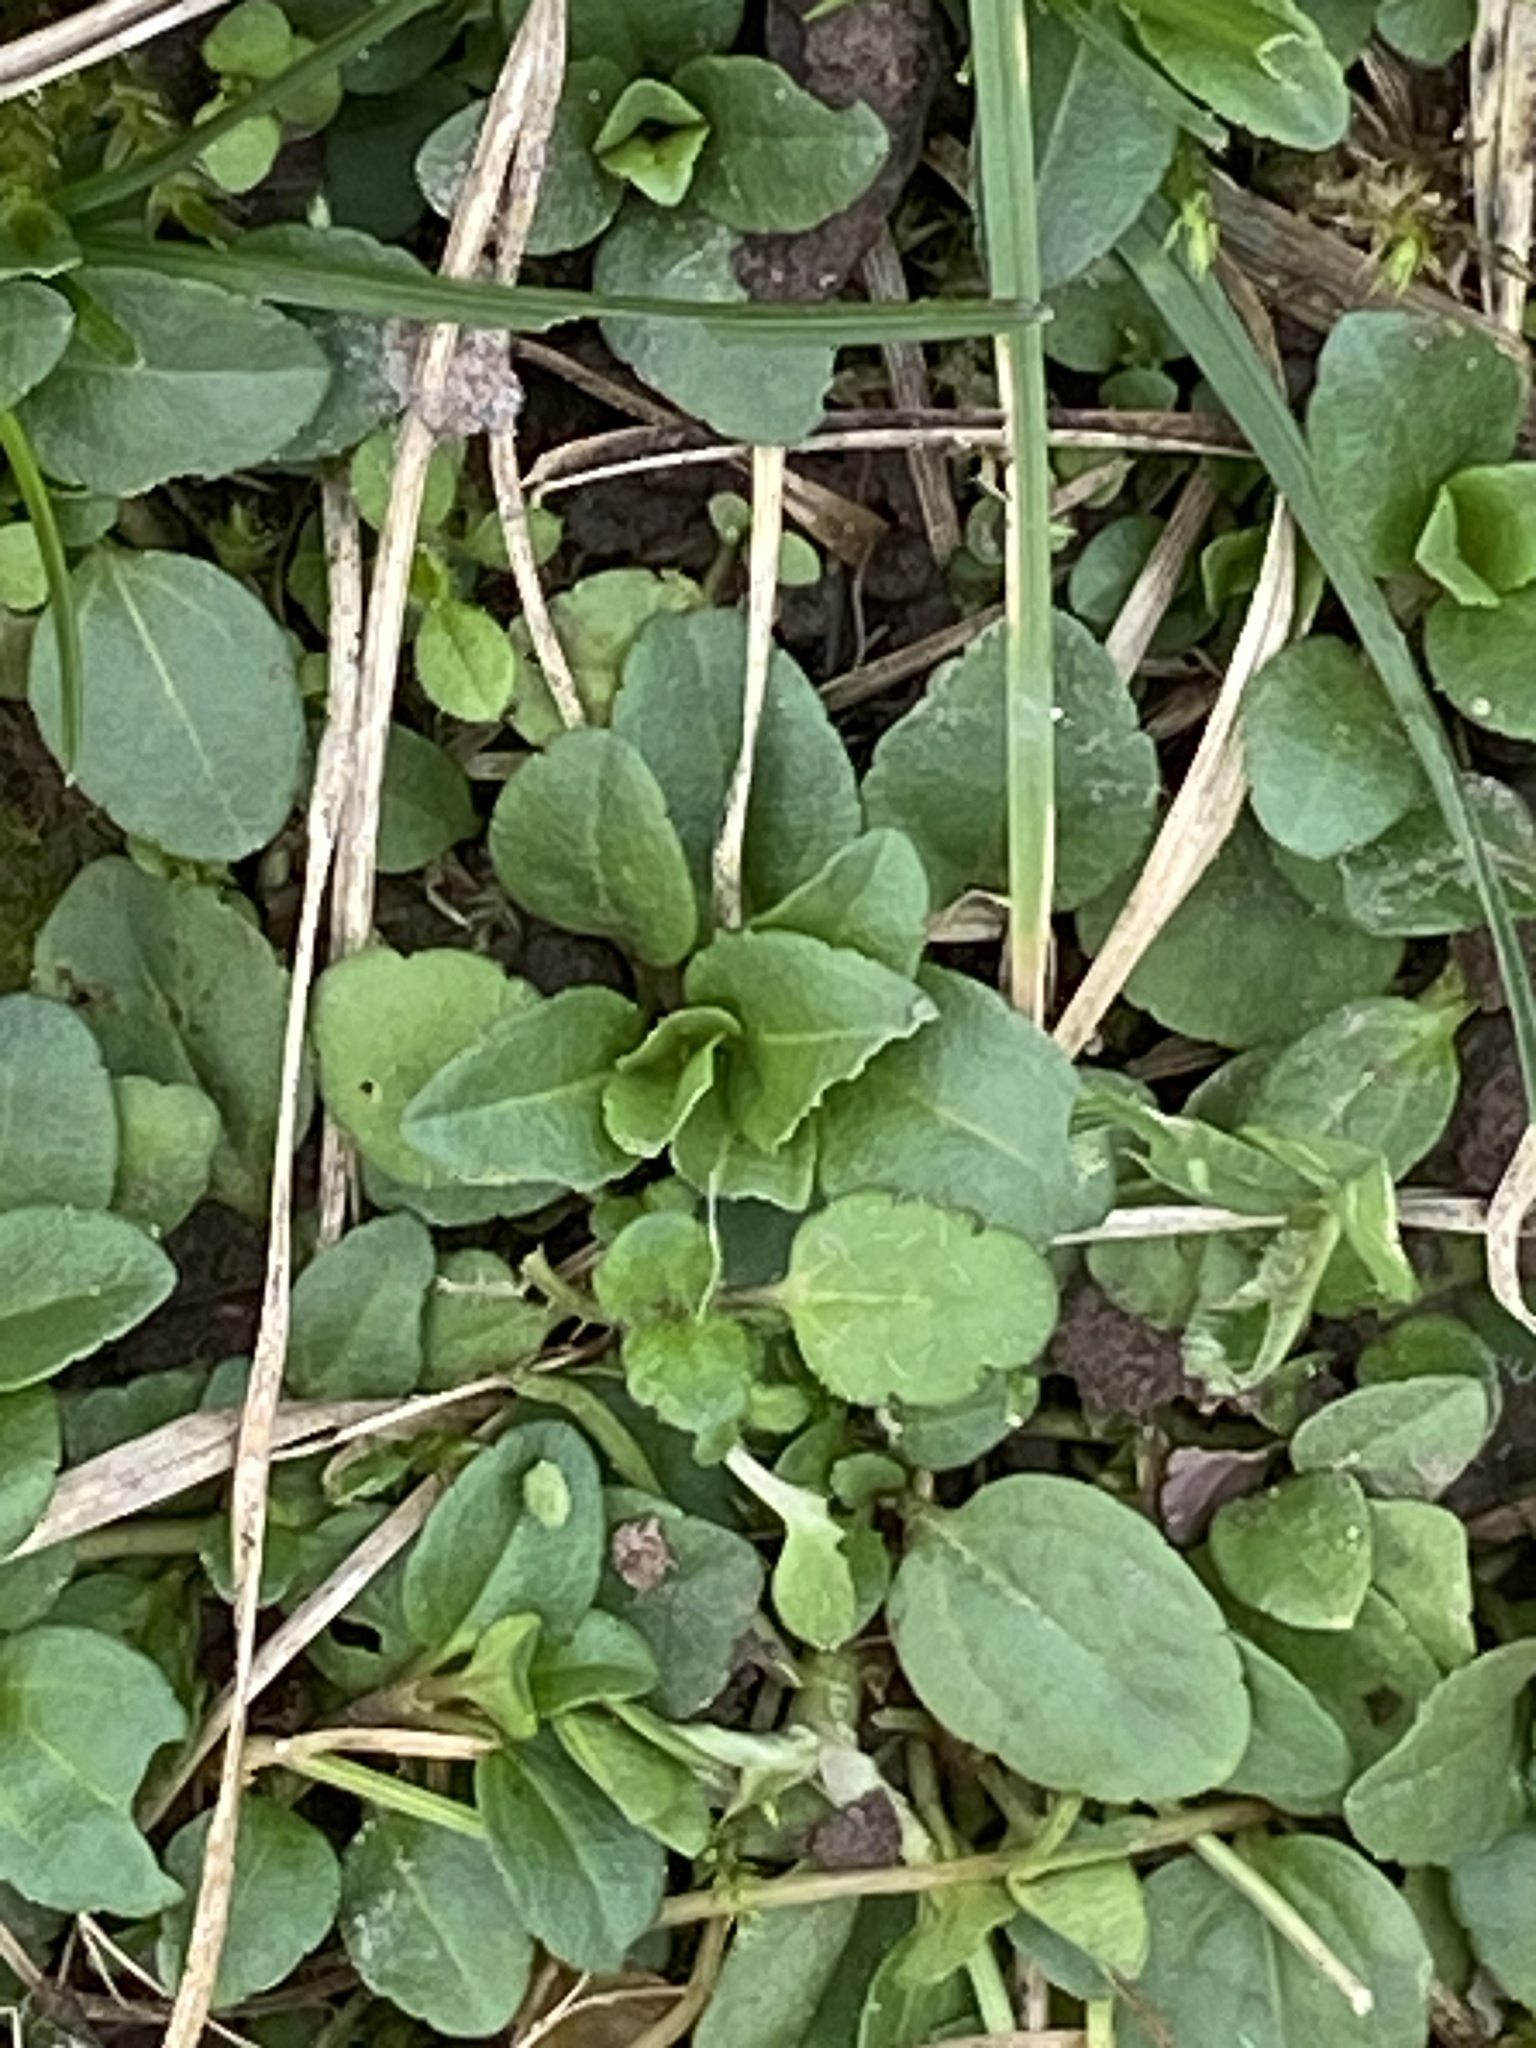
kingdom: Plantae
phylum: Tracheophyta
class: Magnoliopsida
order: Lamiales
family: Plantaginaceae
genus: Veronica
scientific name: Veronica serpyllifolia
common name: Thyme-leaved speedwell
